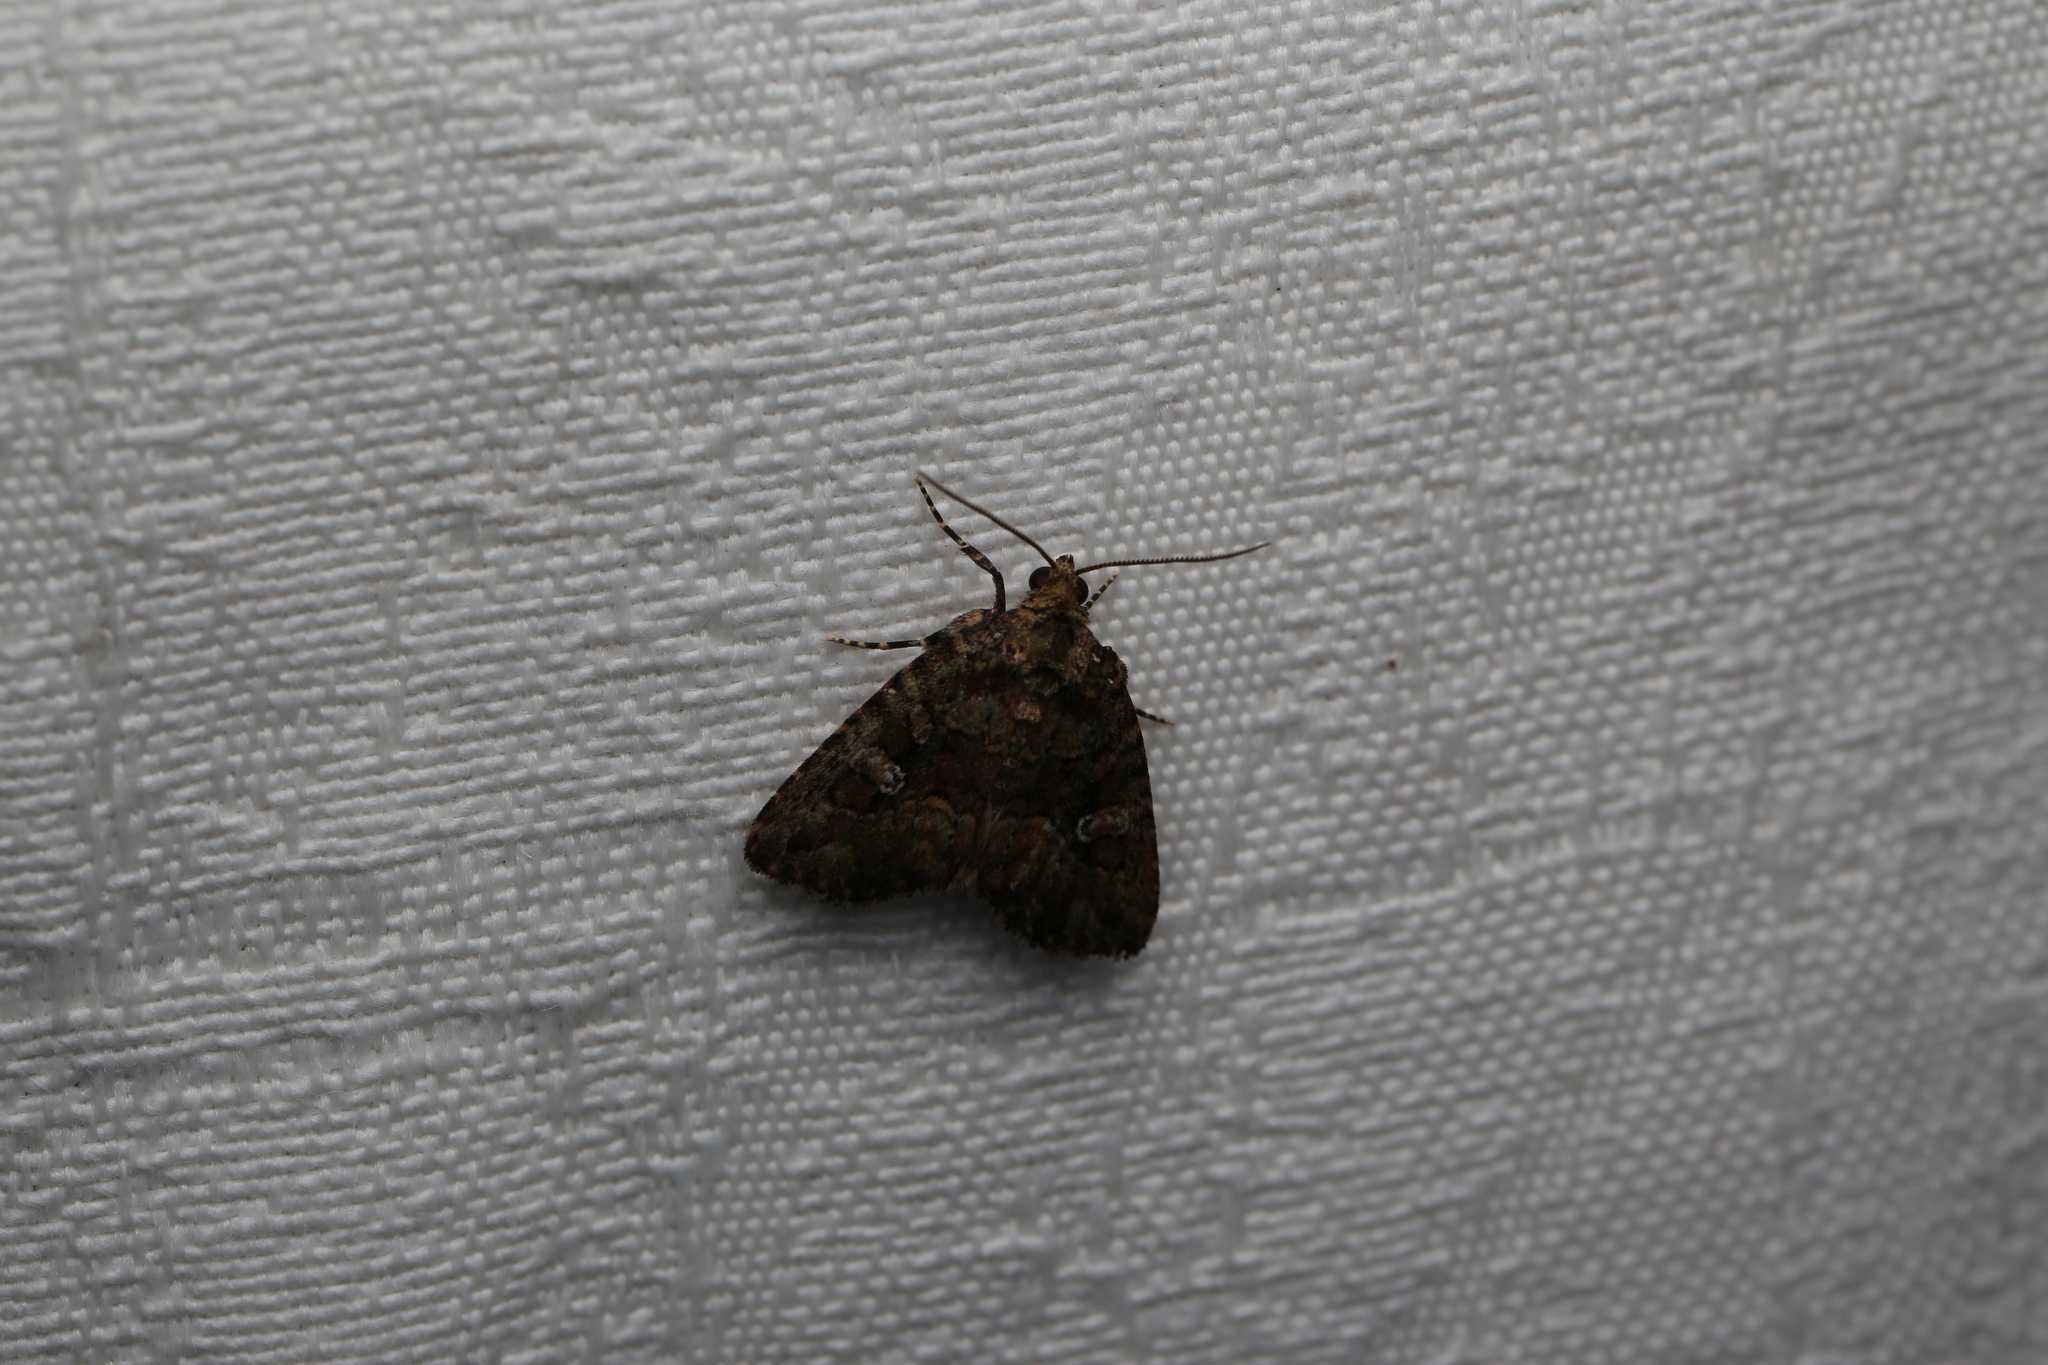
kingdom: Animalia
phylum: Arthropoda
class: Insecta
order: Lepidoptera
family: Tineidae
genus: Euprora
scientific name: Euprora
